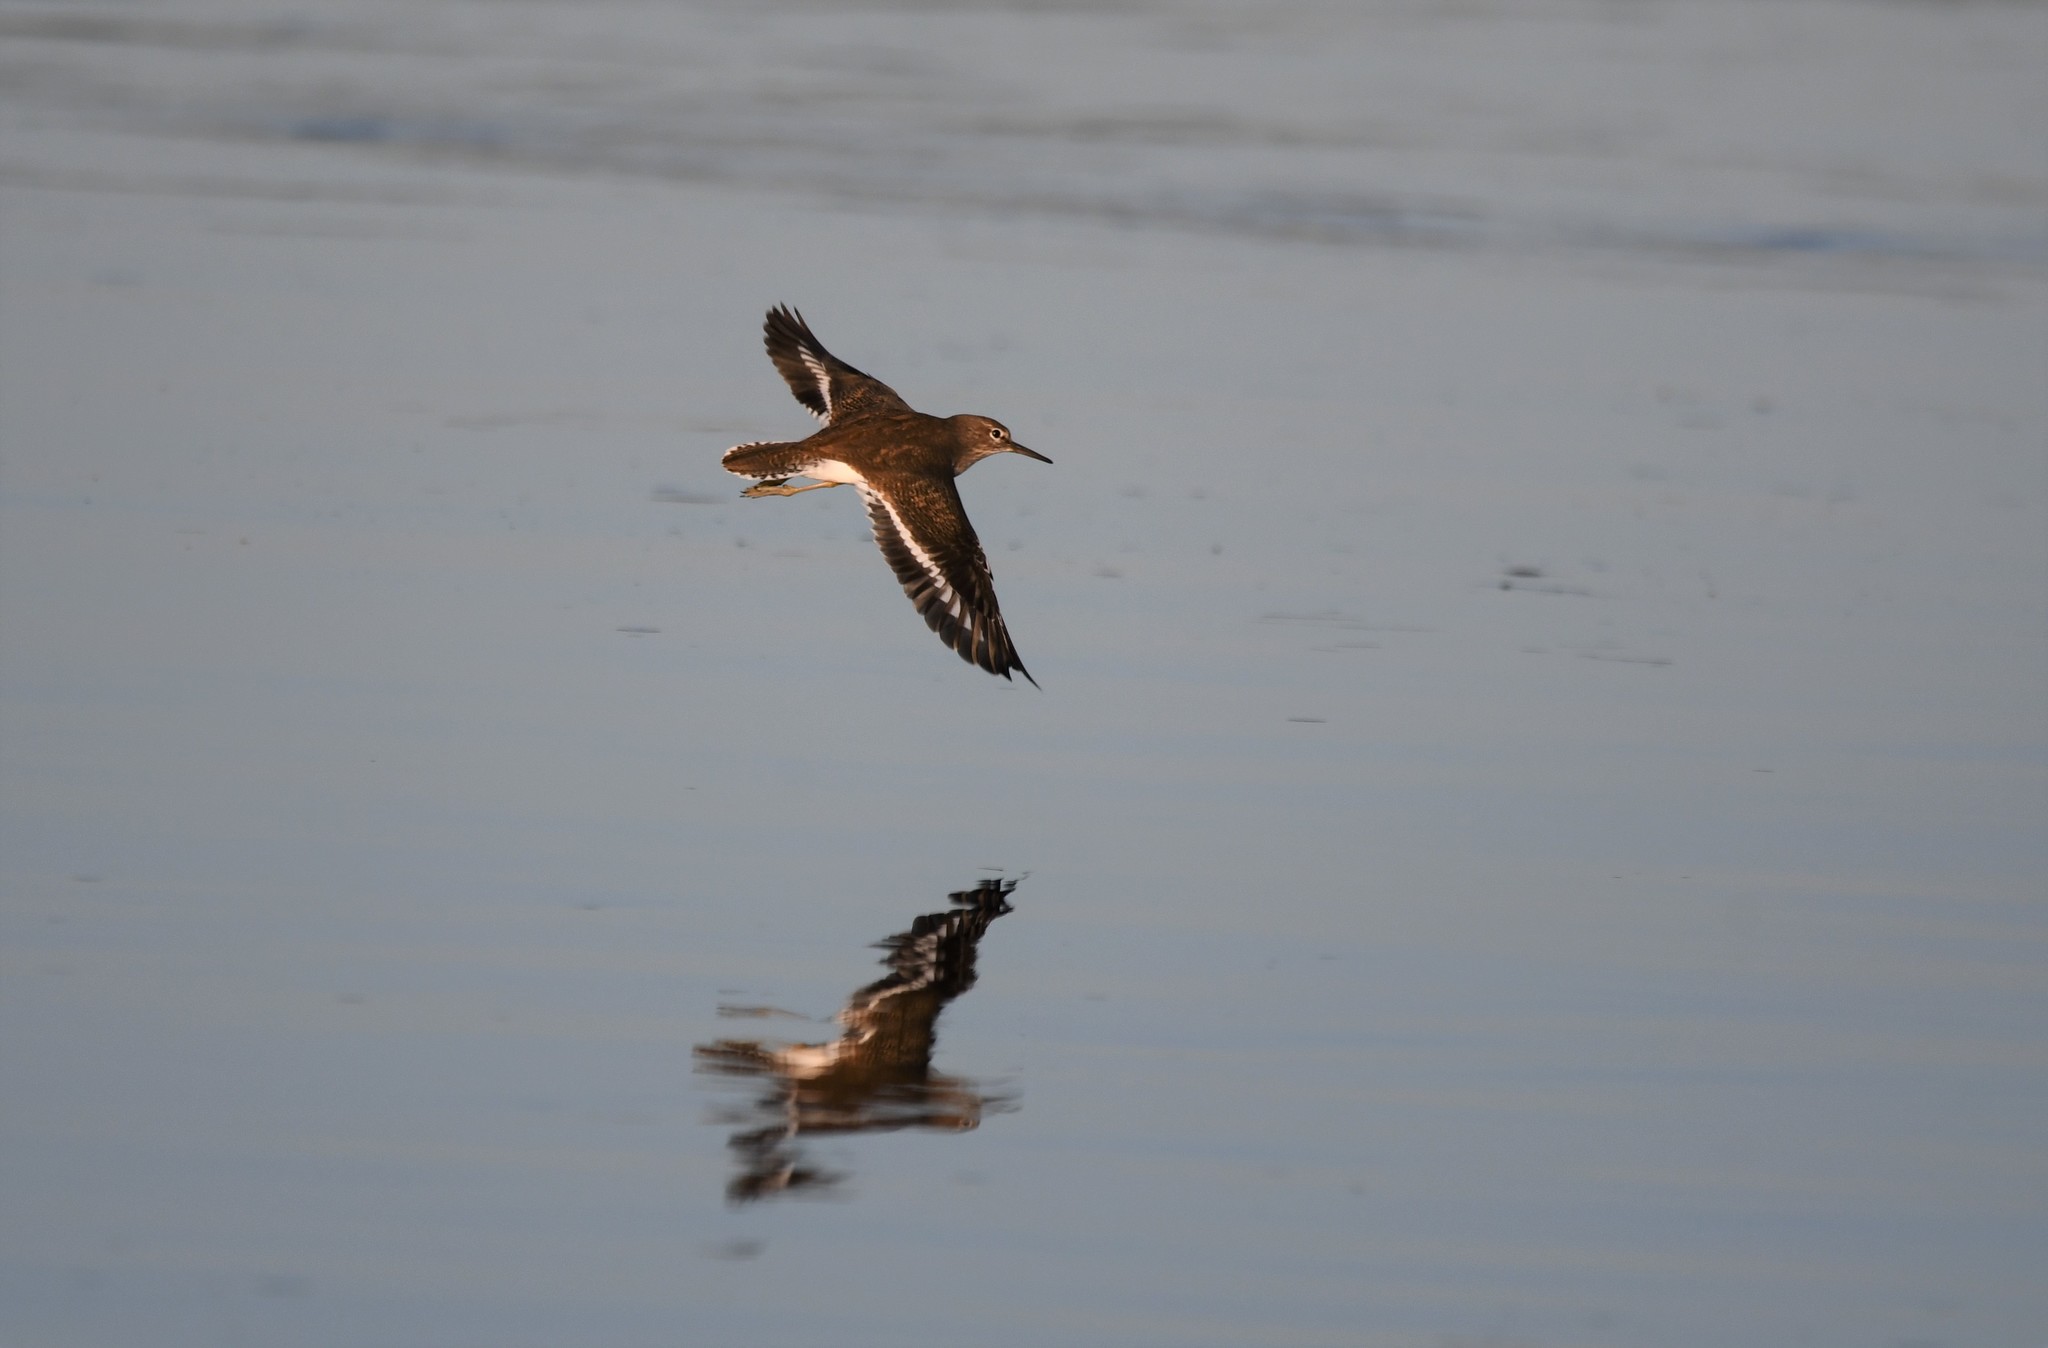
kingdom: Animalia
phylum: Chordata
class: Aves
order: Charadriiformes
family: Scolopacidae
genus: Actitis
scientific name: Actitis hypoleucos
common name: Common sandpiper
